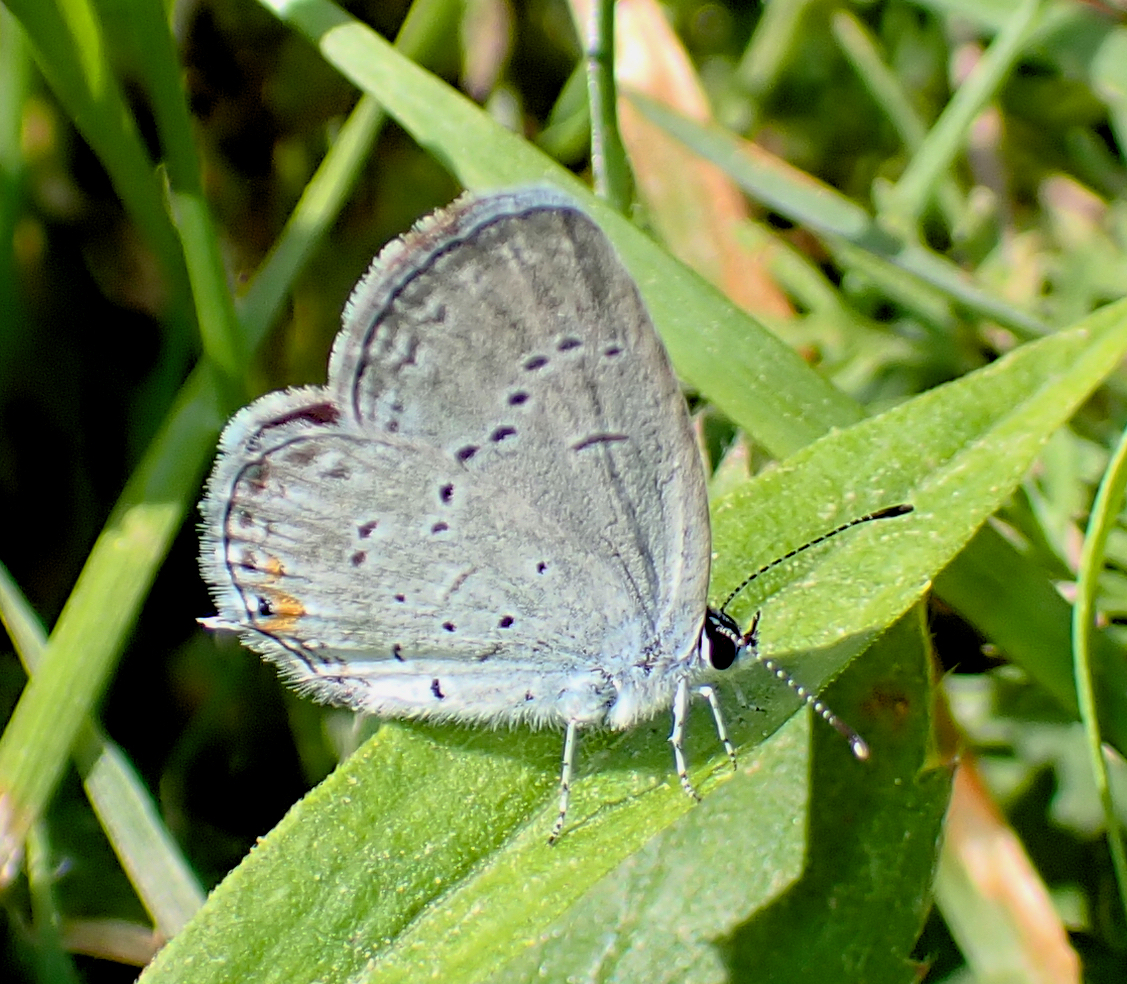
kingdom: Animalia
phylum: Arthropoda
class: Insecta
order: Lepidoptera
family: Lycaenidae
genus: Elkalyce
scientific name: Elkalyce comyntas
